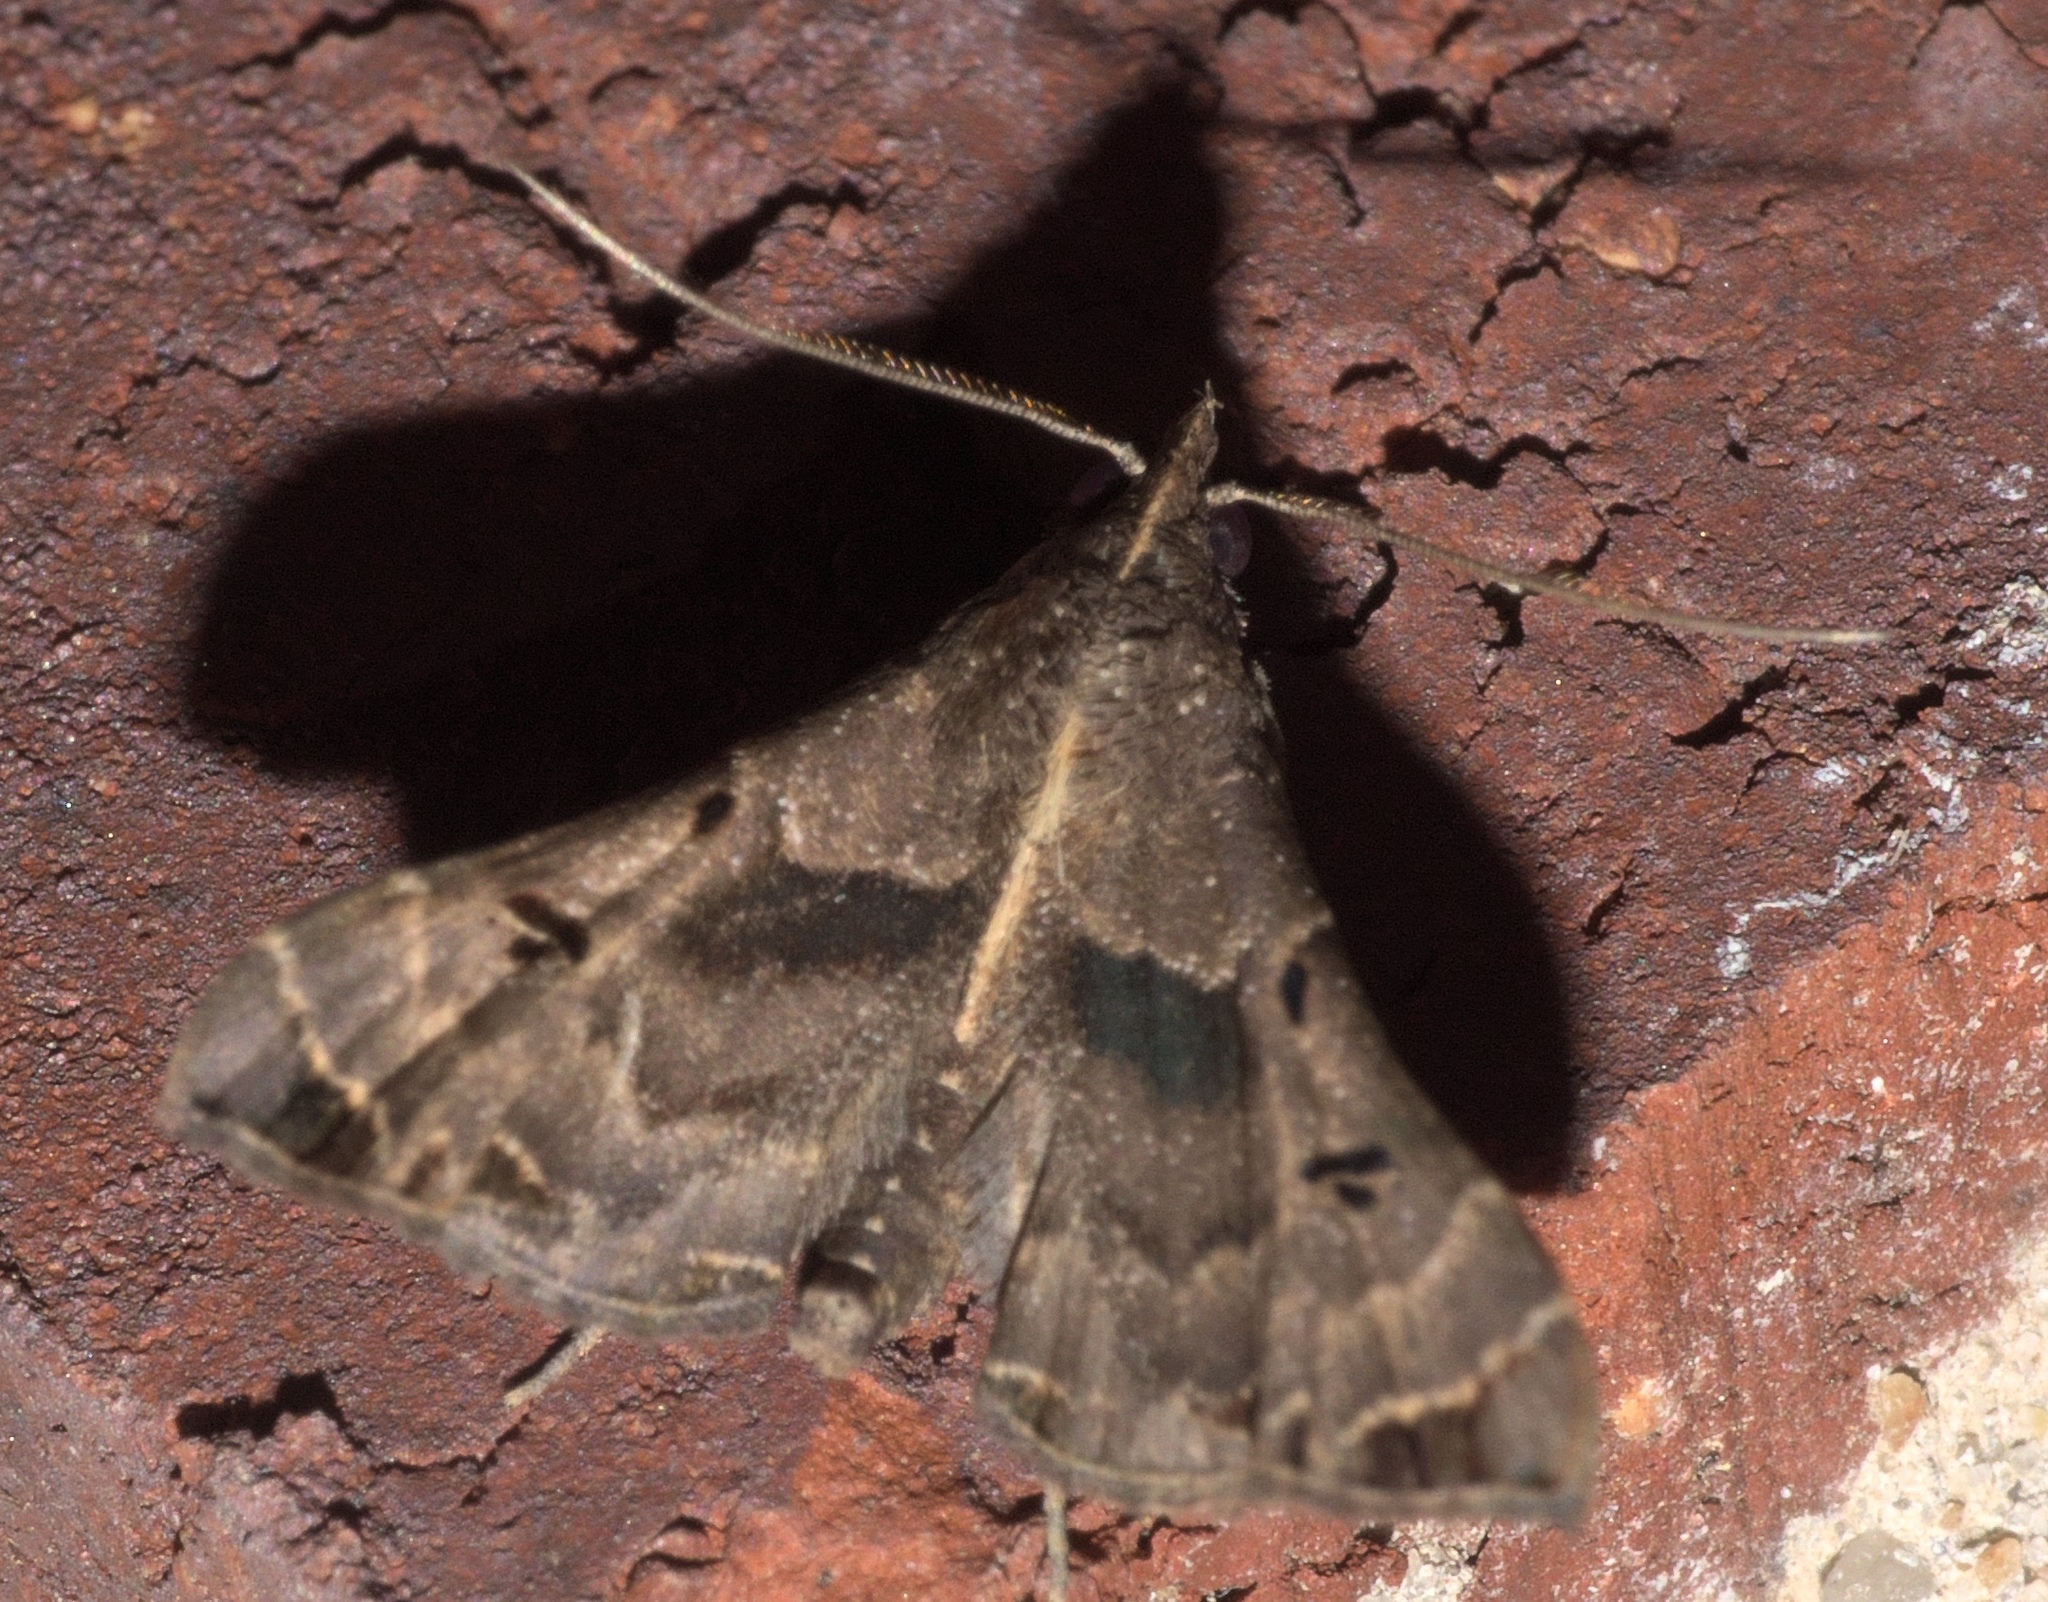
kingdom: Animalia
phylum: Arthropoda
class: Insecta
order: Lepidoptera
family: Erebidae
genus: Palthis
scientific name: Palthis asopialis
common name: Faint-spotted palthis moth
